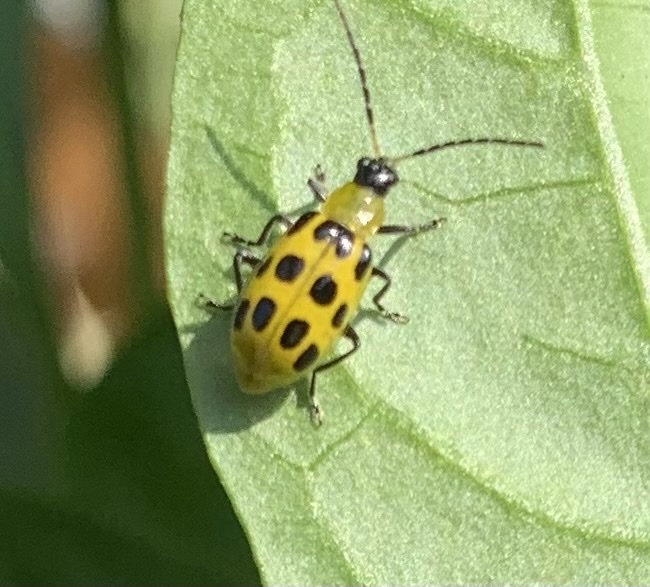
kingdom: Animalia
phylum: Arthropoda
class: Insecta
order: Coleoptera
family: Chrysomelidae
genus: Diabrotica
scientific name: Diabrotica undecimpunctata
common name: Spotted cucumber beetle
